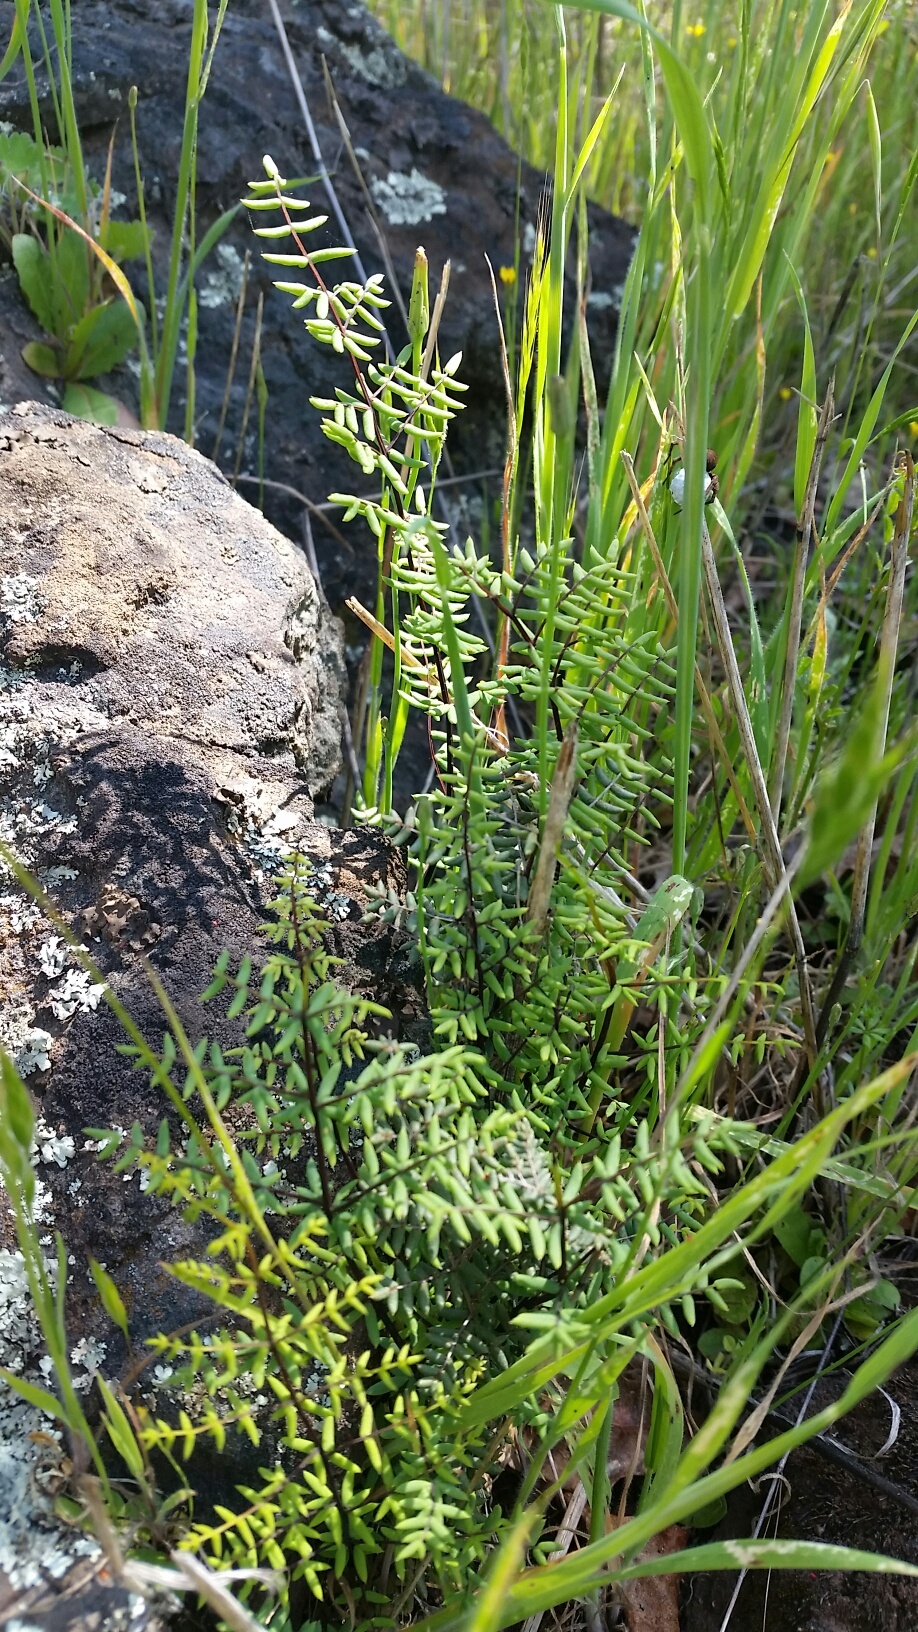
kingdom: Plantae
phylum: Tracheophyta
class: Polypodiopsida
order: Polypodiales
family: Pteridaceae
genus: Pellaea
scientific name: Pellaea mucronata
